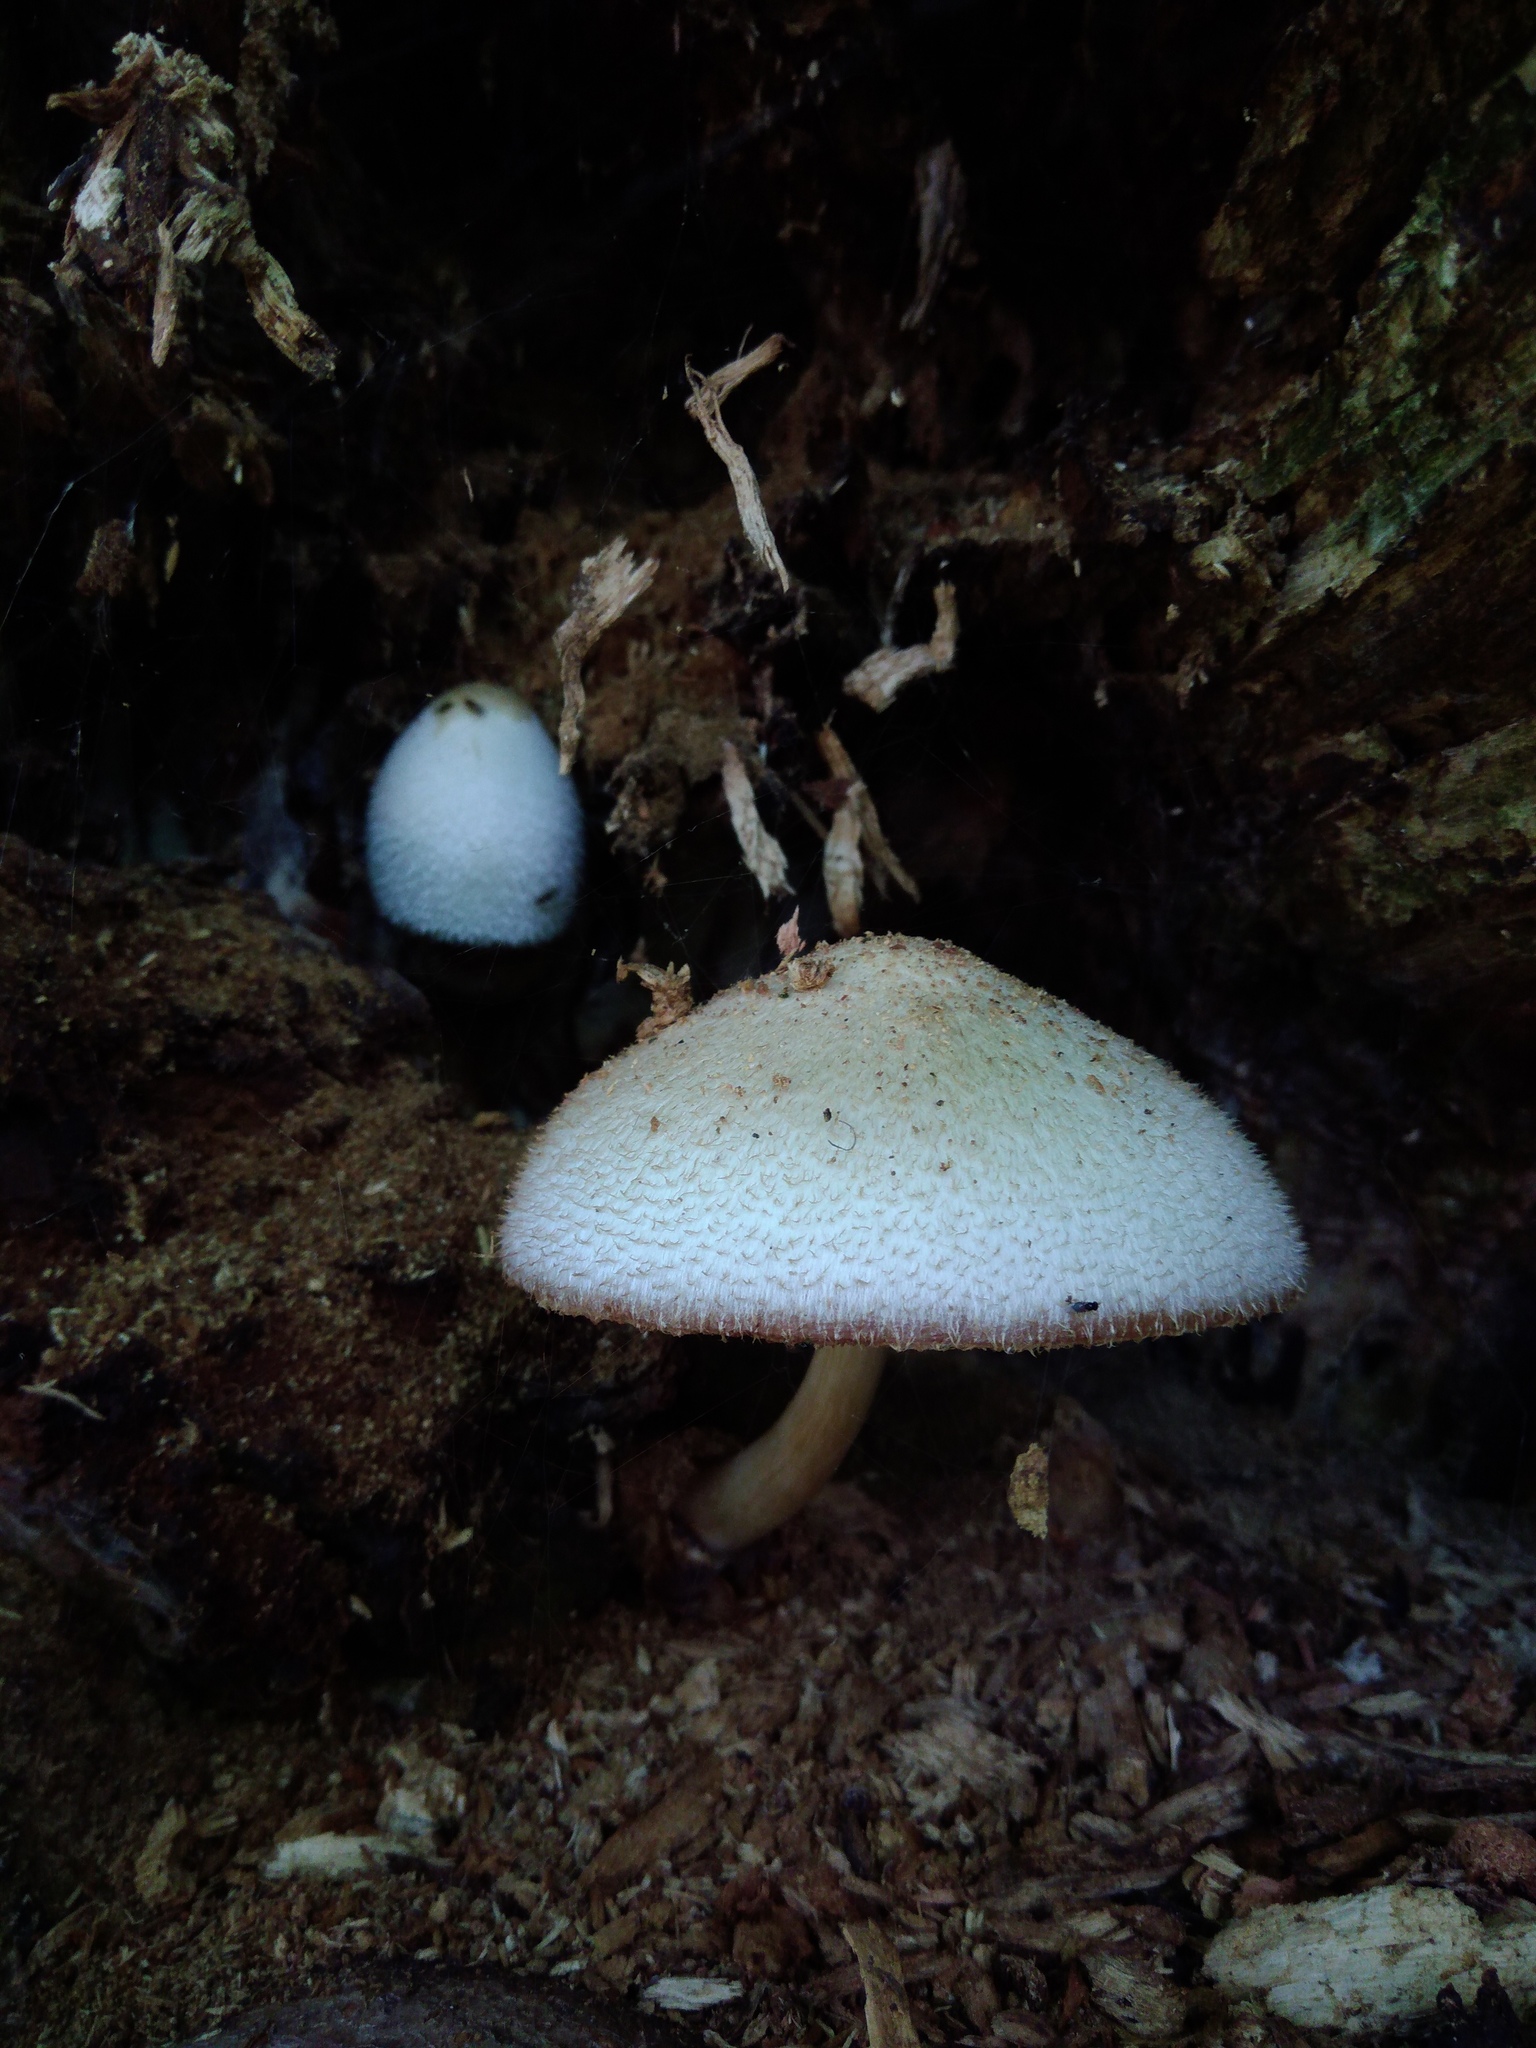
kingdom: Fungi
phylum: Basidiomycota
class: Agaricomycetes
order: Agaricales
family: Pluteaceae
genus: Volvariella
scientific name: Volvariella bombycina
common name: Silky rosegill
